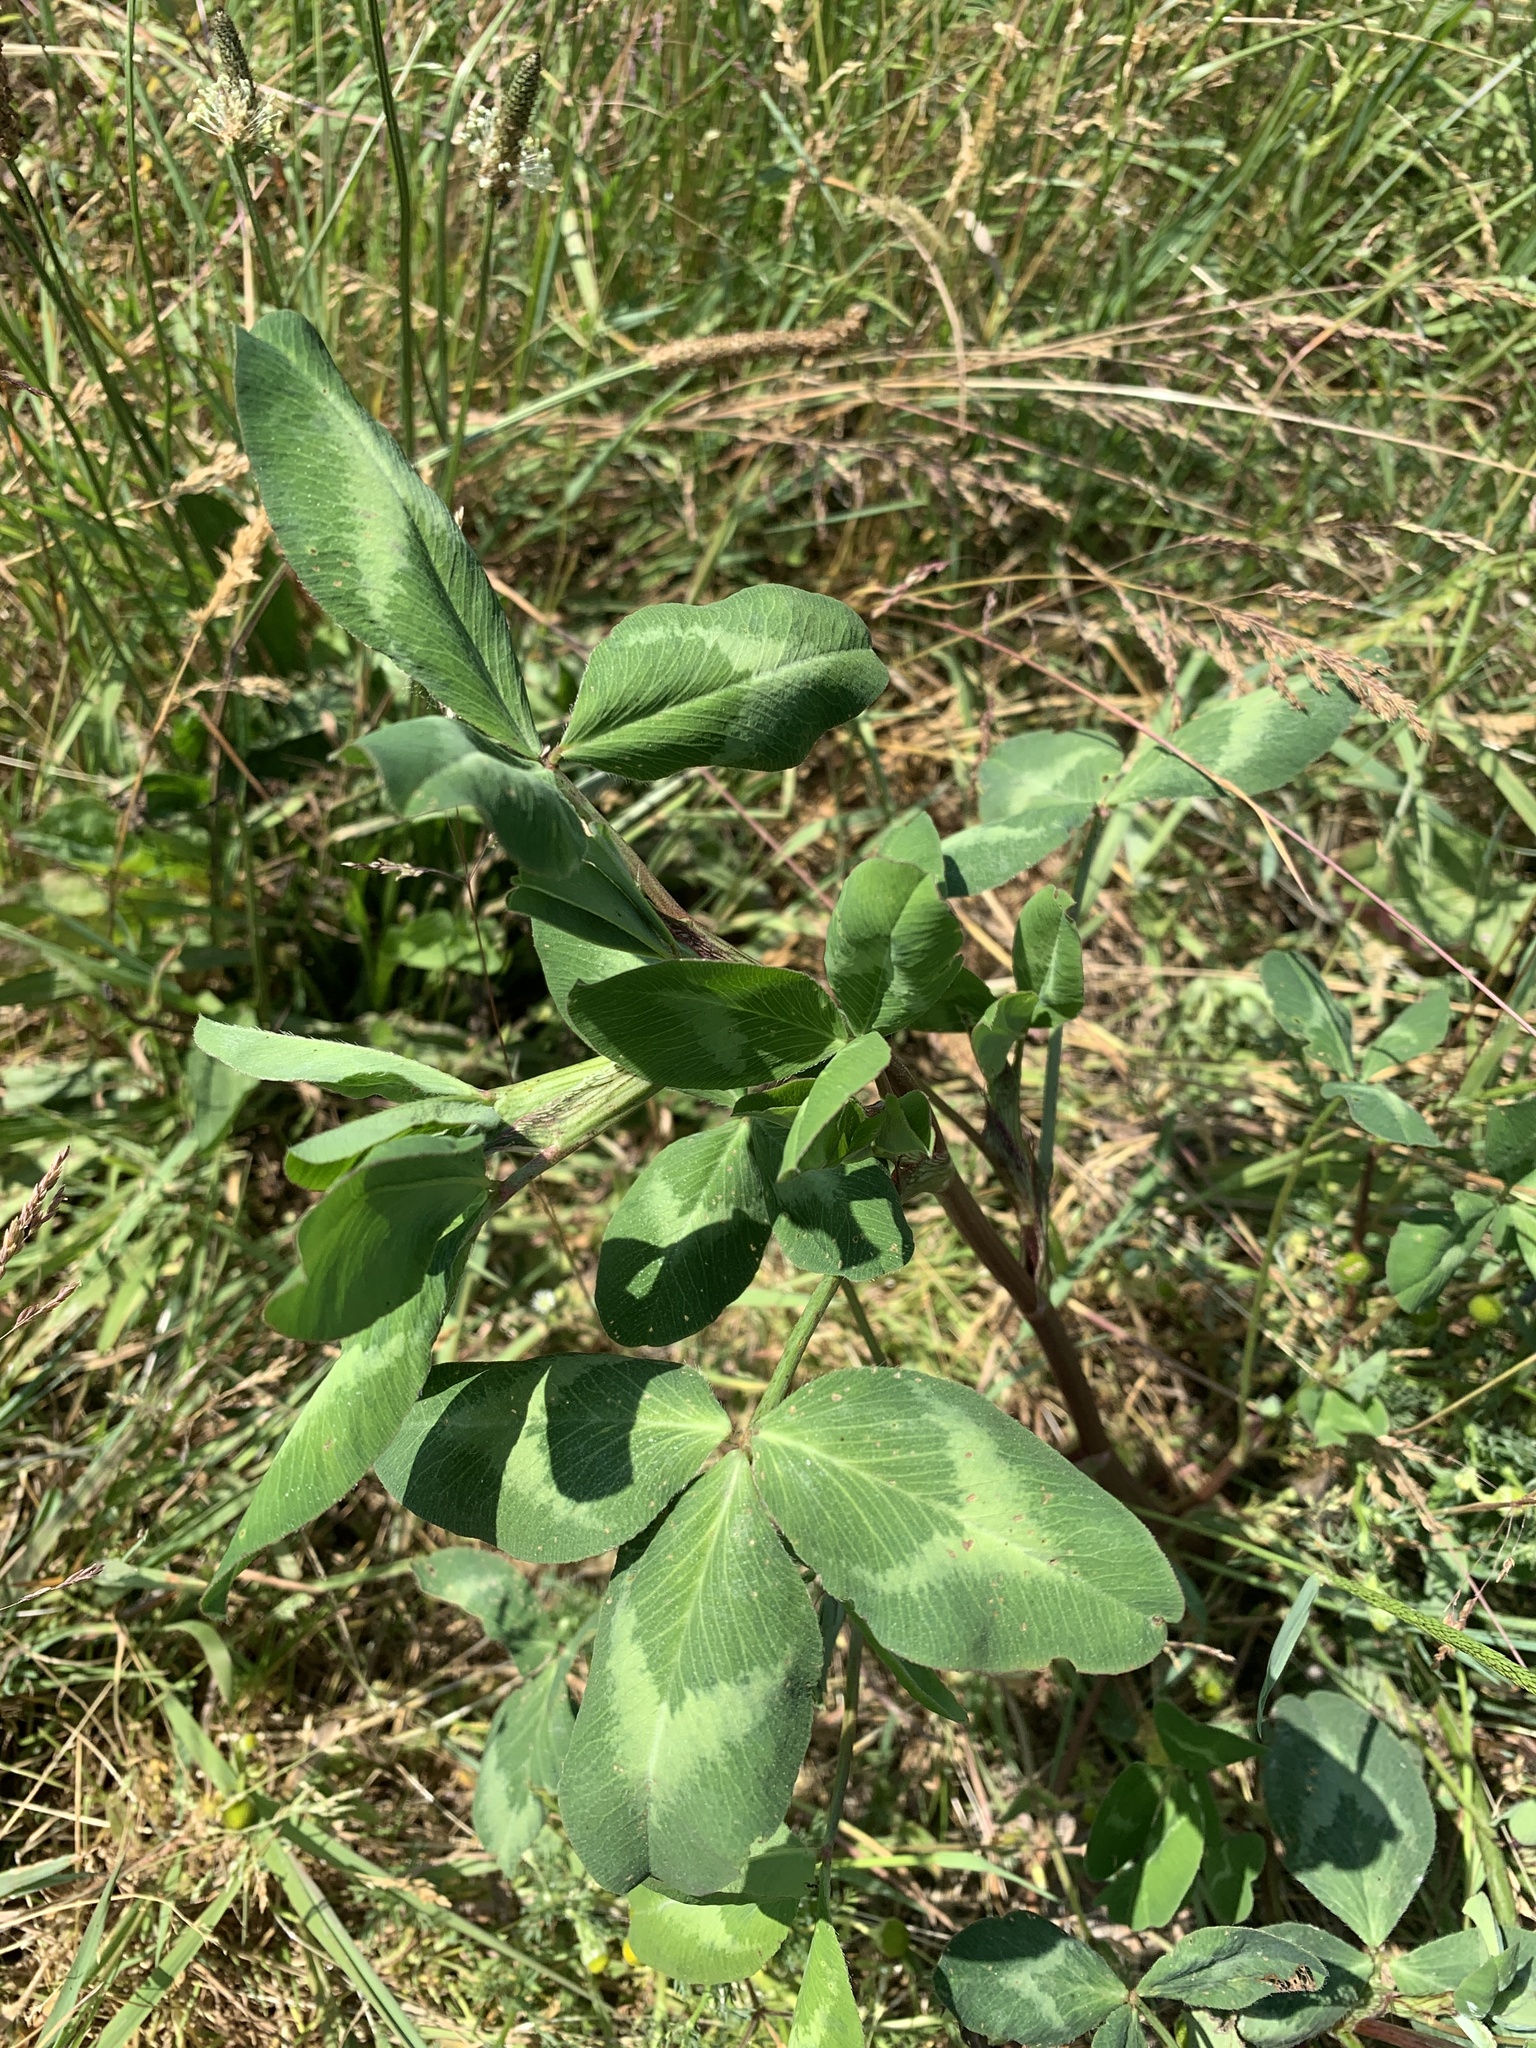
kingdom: Plantae
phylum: Tracheophyta
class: Magnoliopsida
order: Fabales
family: Fabaceae
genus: Trifolium
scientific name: Trifolium pratense
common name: Red clover
